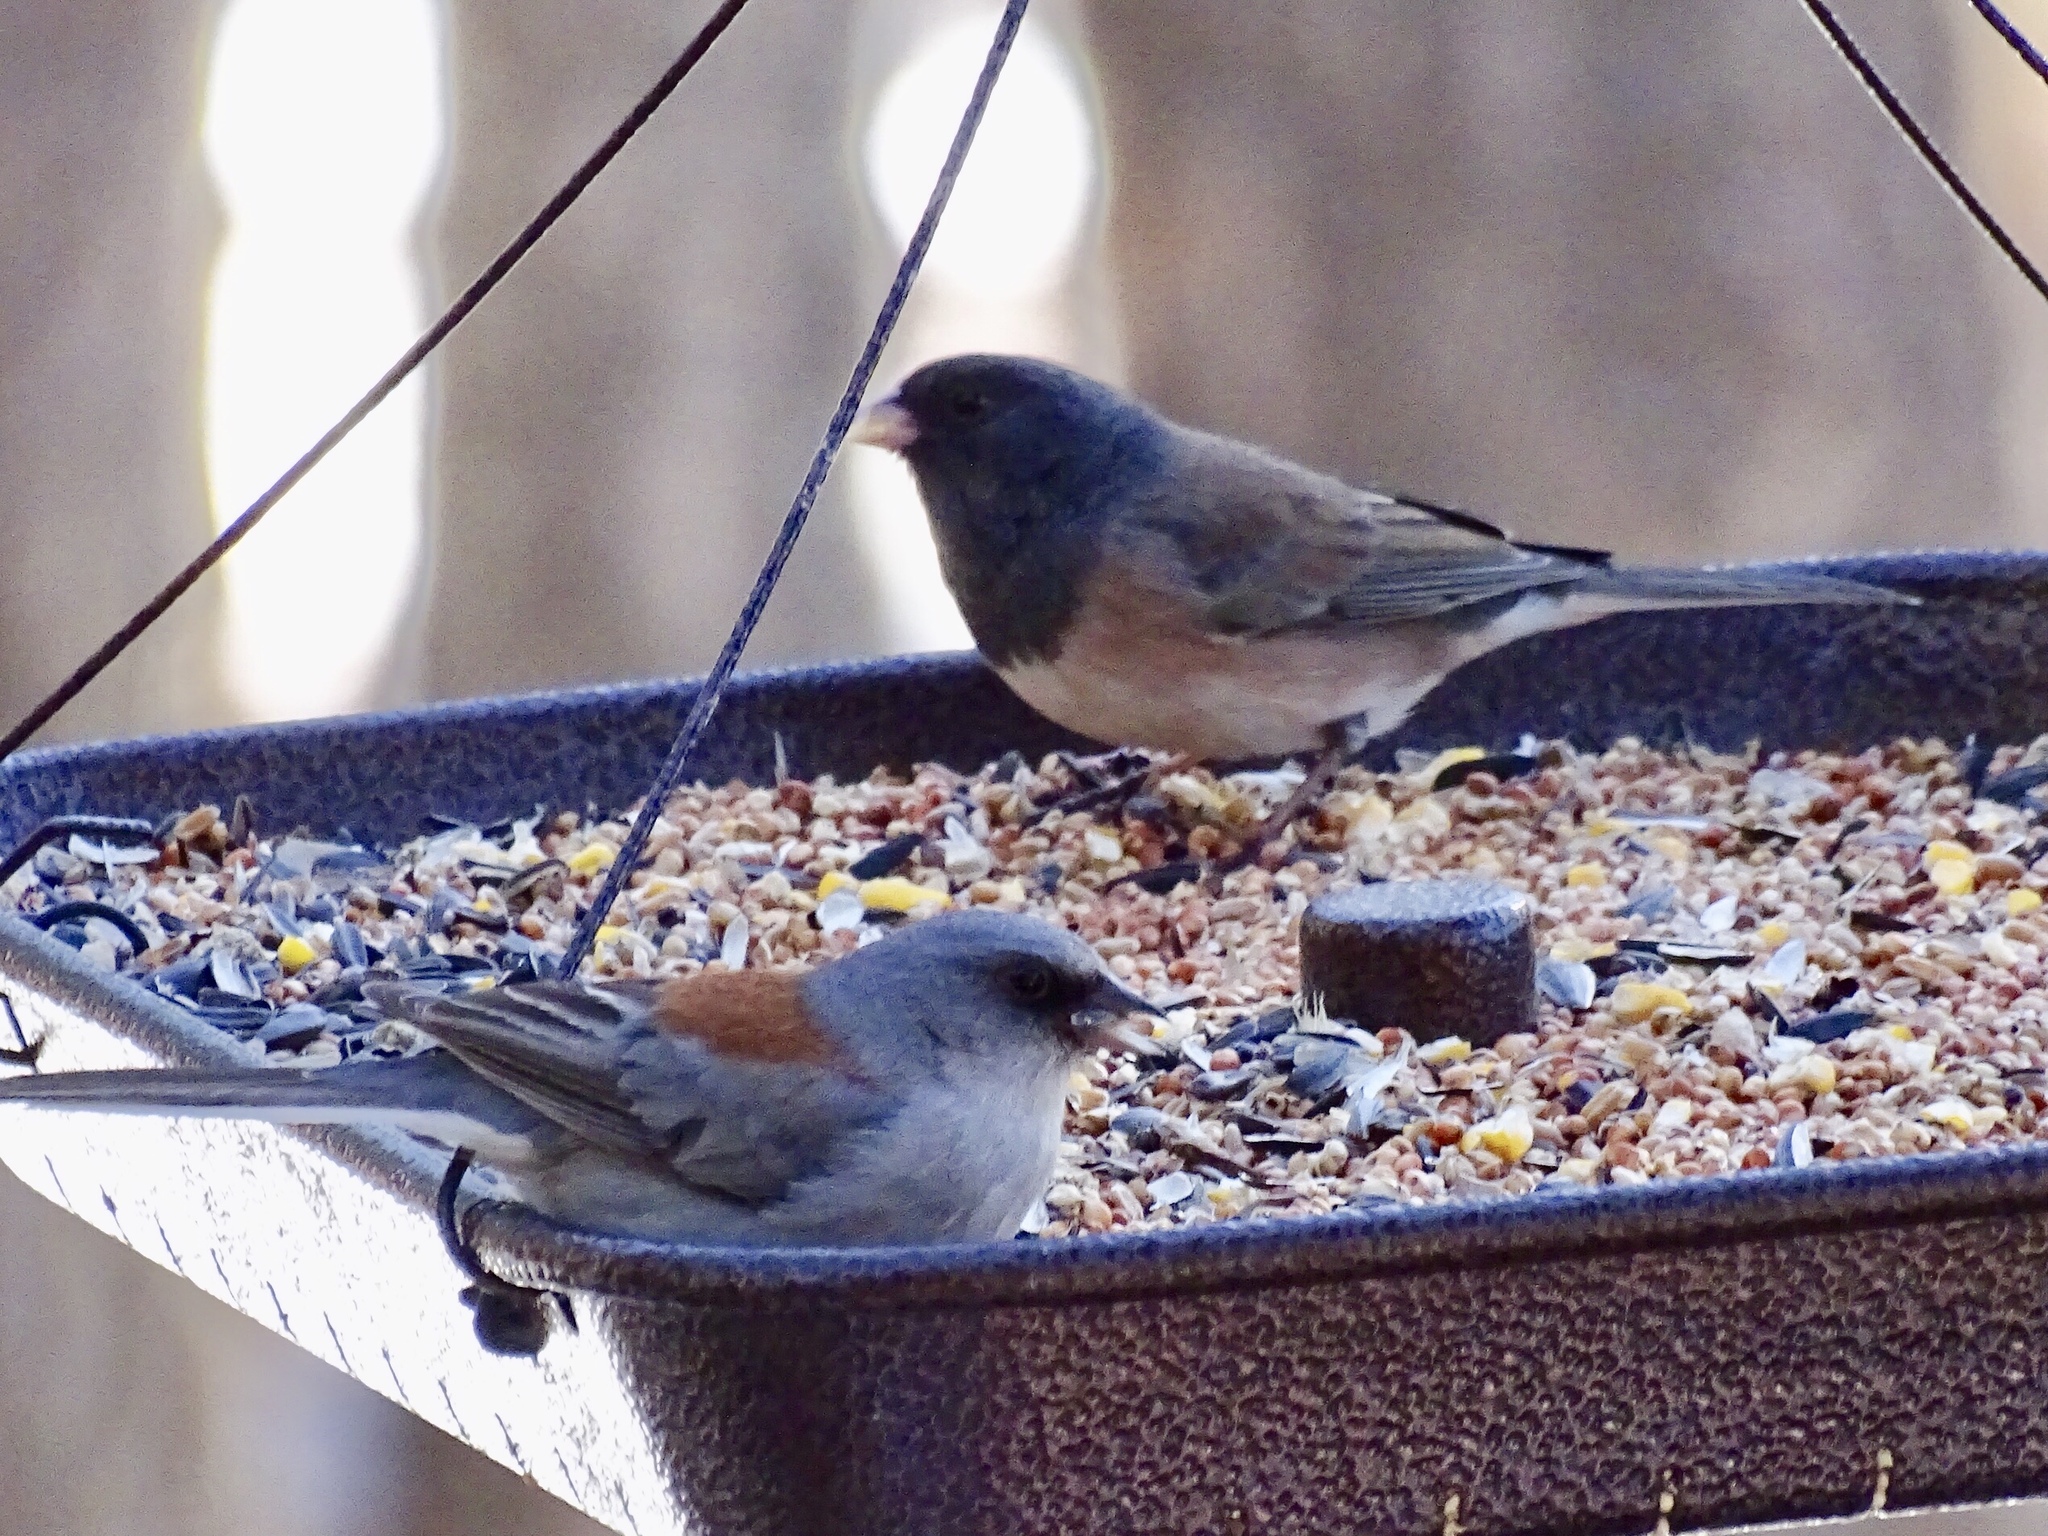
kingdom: Animalia
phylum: Chordata
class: Aves
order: Passeriformes
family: Passerellidae
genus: Junco
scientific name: Junco hyemalis
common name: Dark-eyed junco
